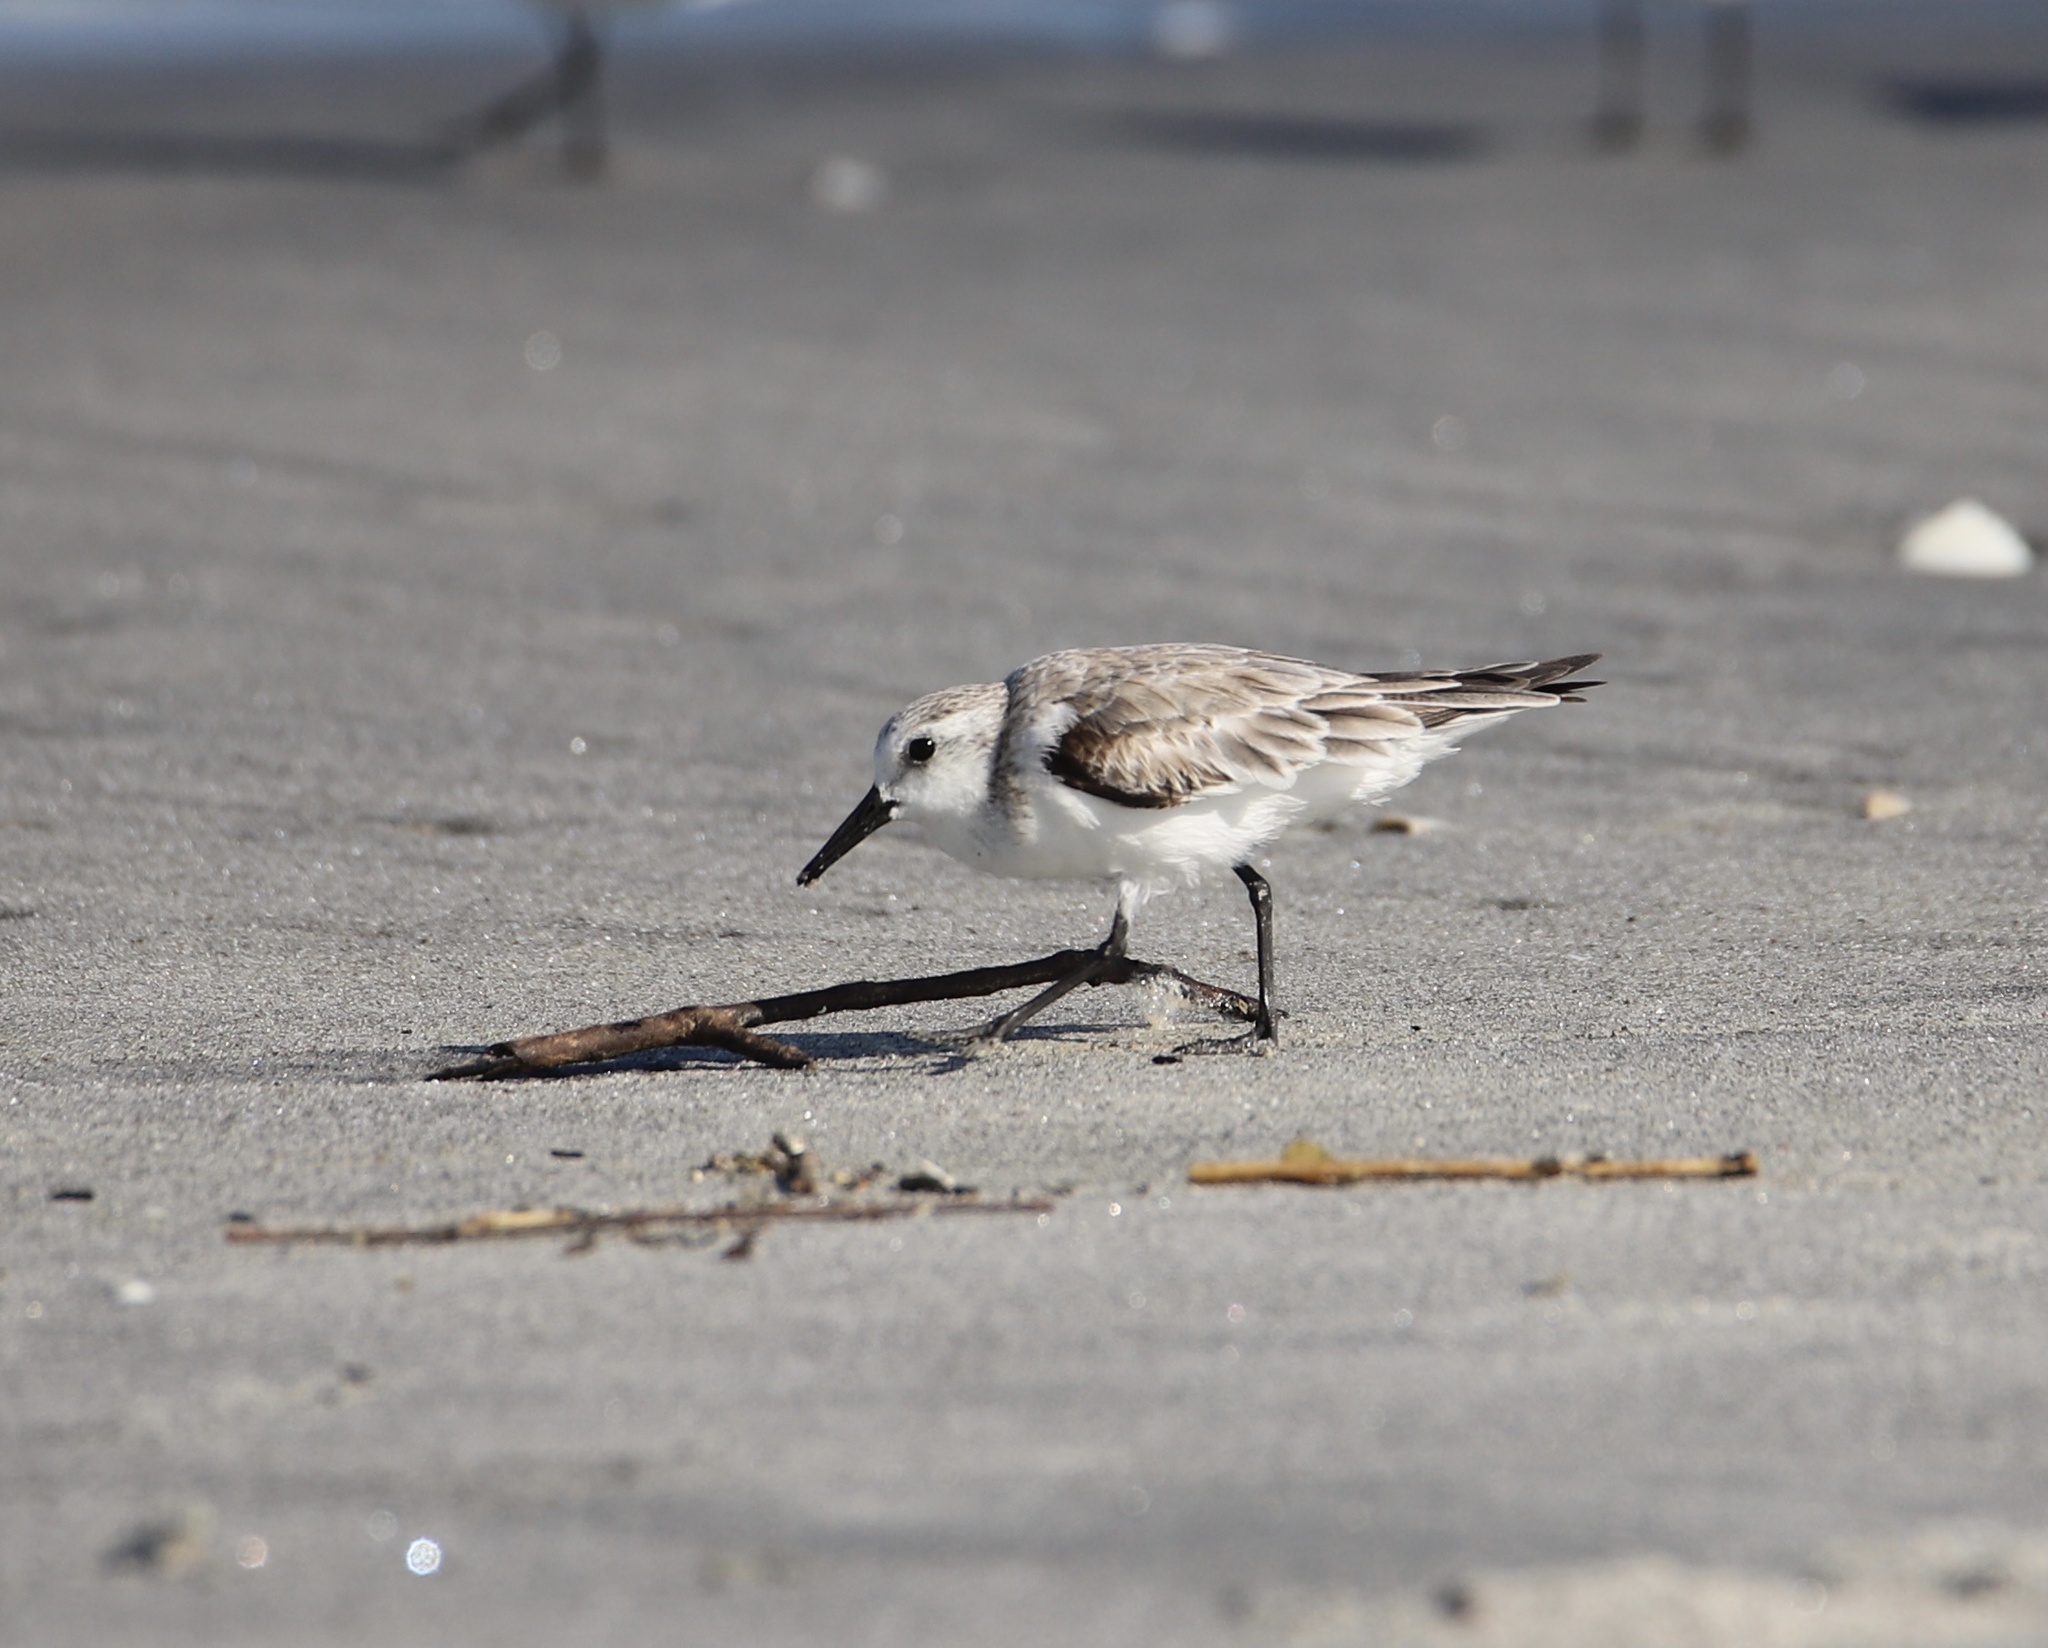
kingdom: Animalia
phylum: Chordata
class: Aves
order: Charadriiformes
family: Scolopacidae
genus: Calidris
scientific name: Calidris alba
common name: Sanderling
